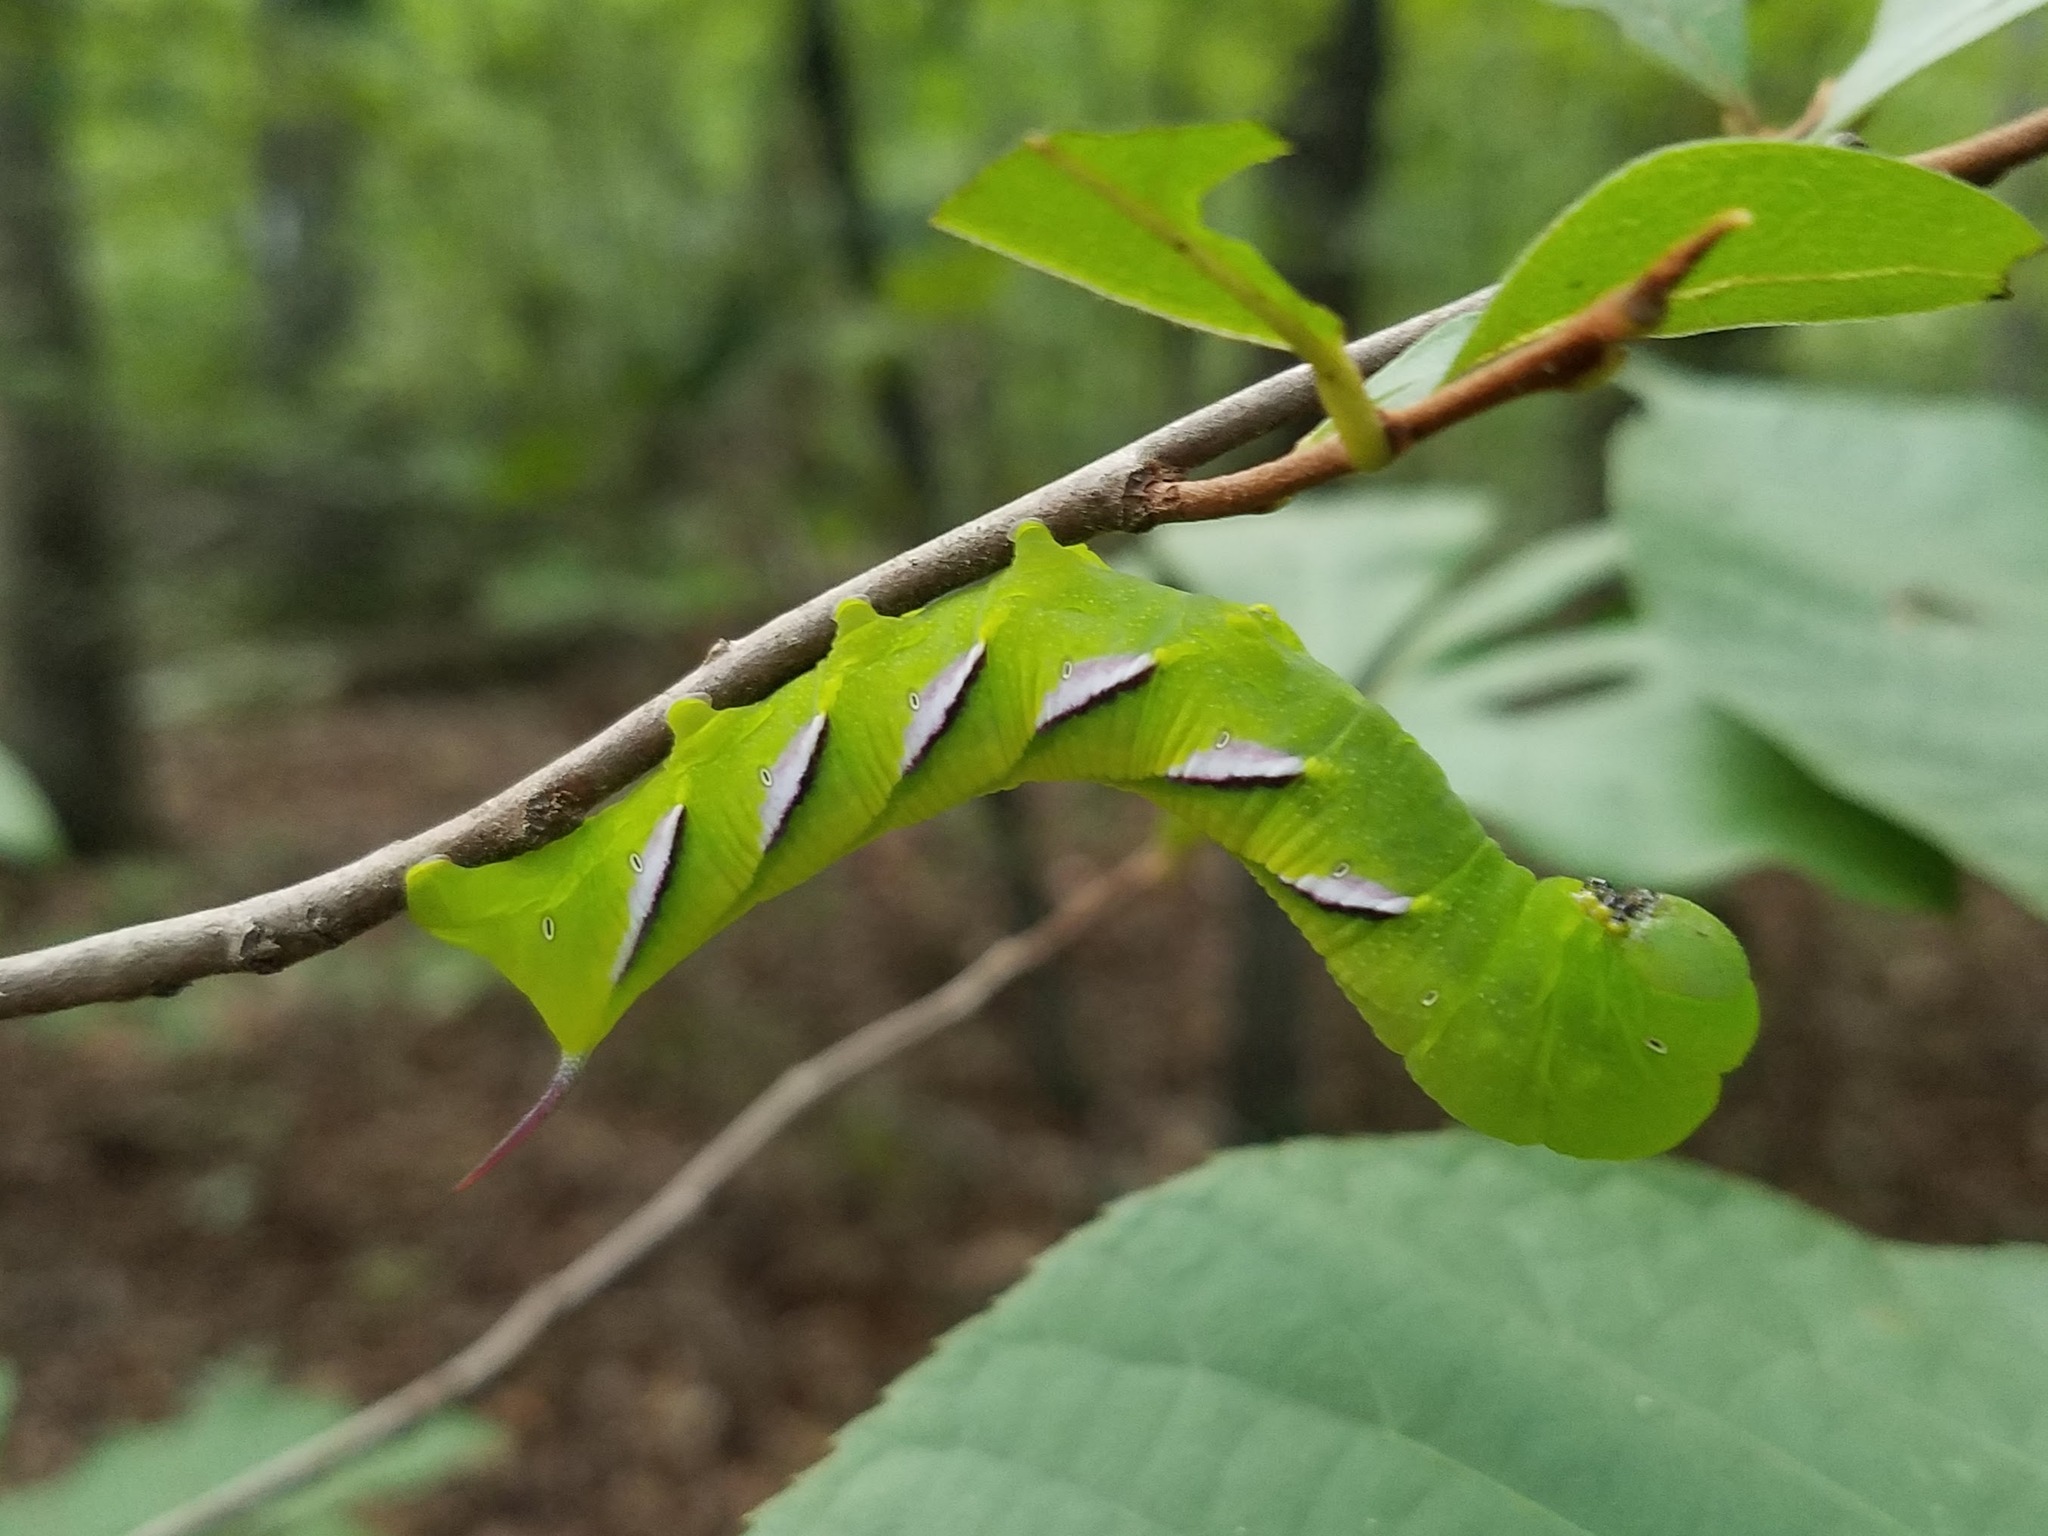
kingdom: Animalia
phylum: Arthropoda
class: Insecta
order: Lepidoptera
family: Sphingidae
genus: Dolba
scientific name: Dolba hyloeus
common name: Pawpaw sphinx
